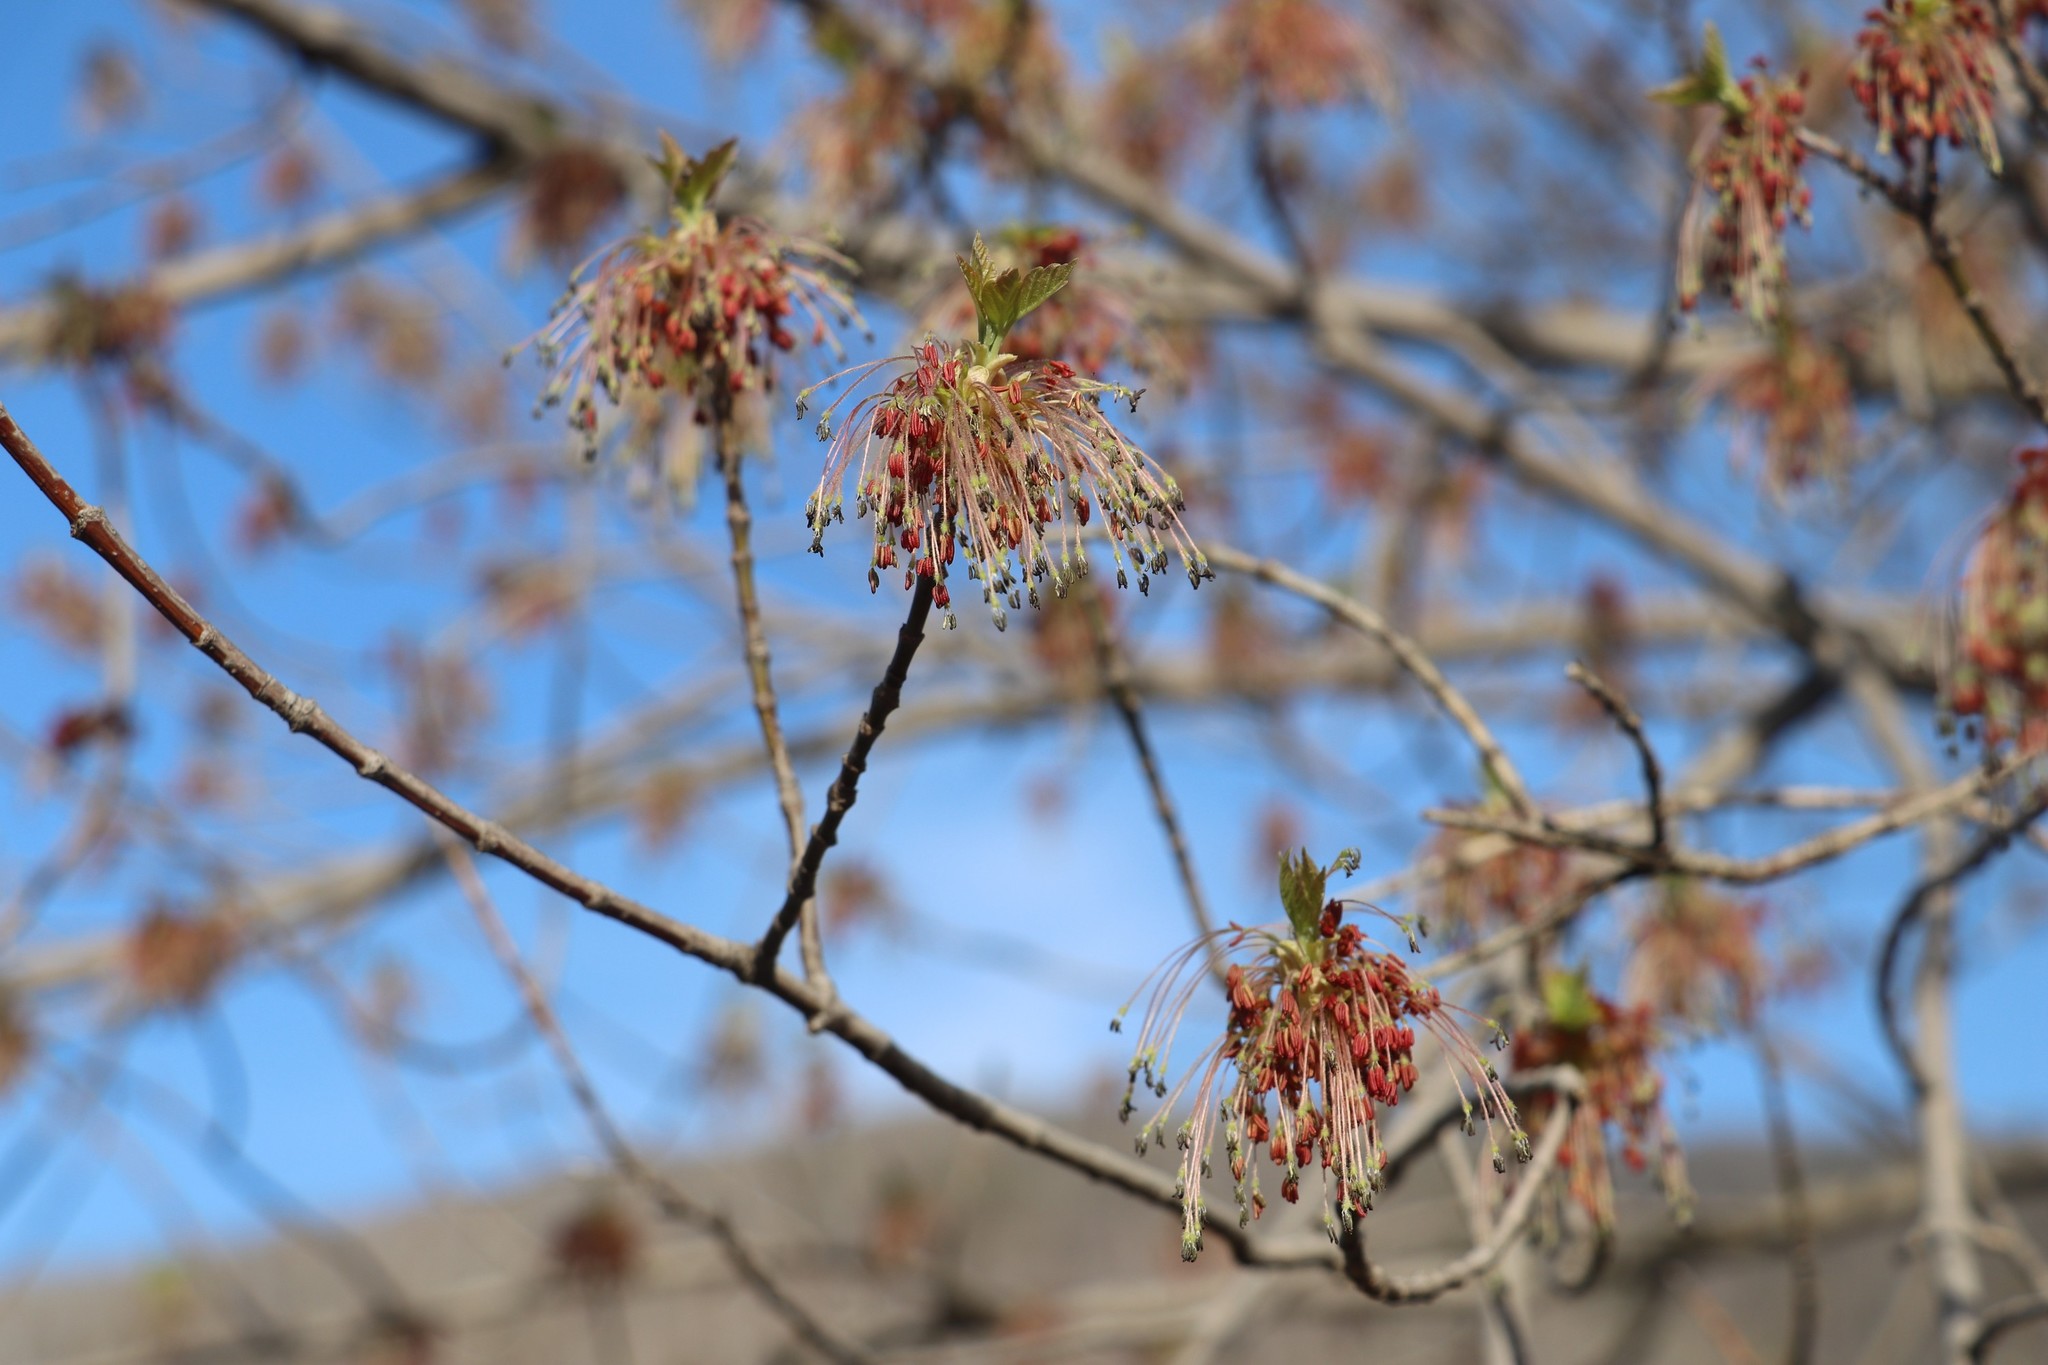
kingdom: Plantae
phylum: Tracheophyta
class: Magnoliopsida
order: Sapindales
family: Sapindaceae
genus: Acer
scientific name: Acer negundo
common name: Ashleaf maple
